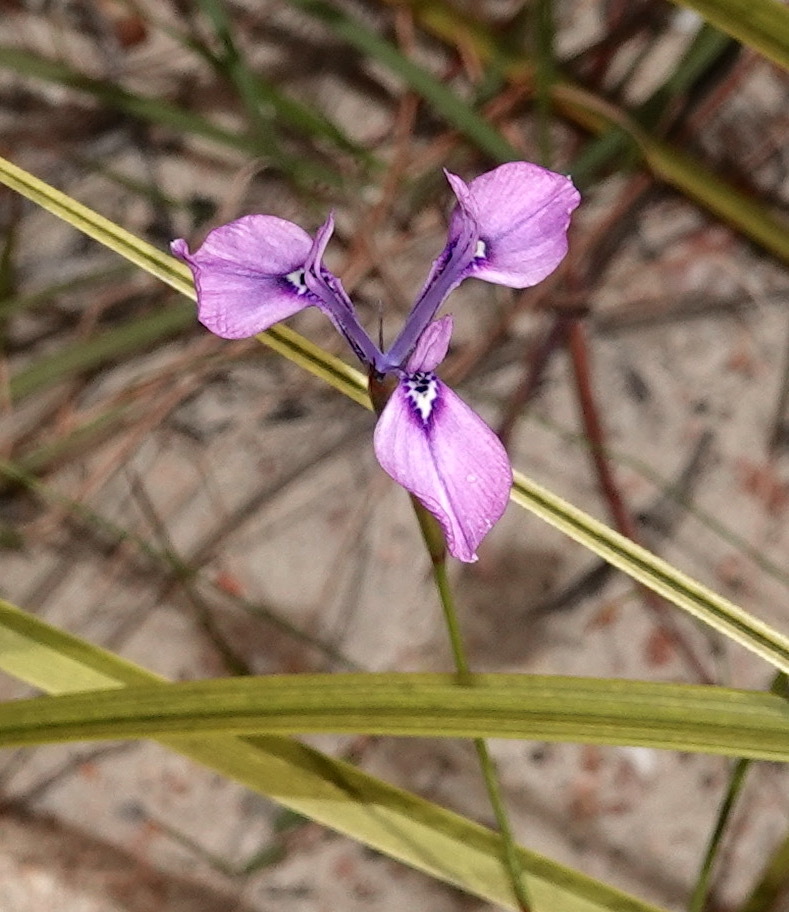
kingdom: Plantae
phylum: Tracheophyta
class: Liliopsida
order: Asparagales
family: Iridaceae
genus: Moraea
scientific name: Moraea tripetala
